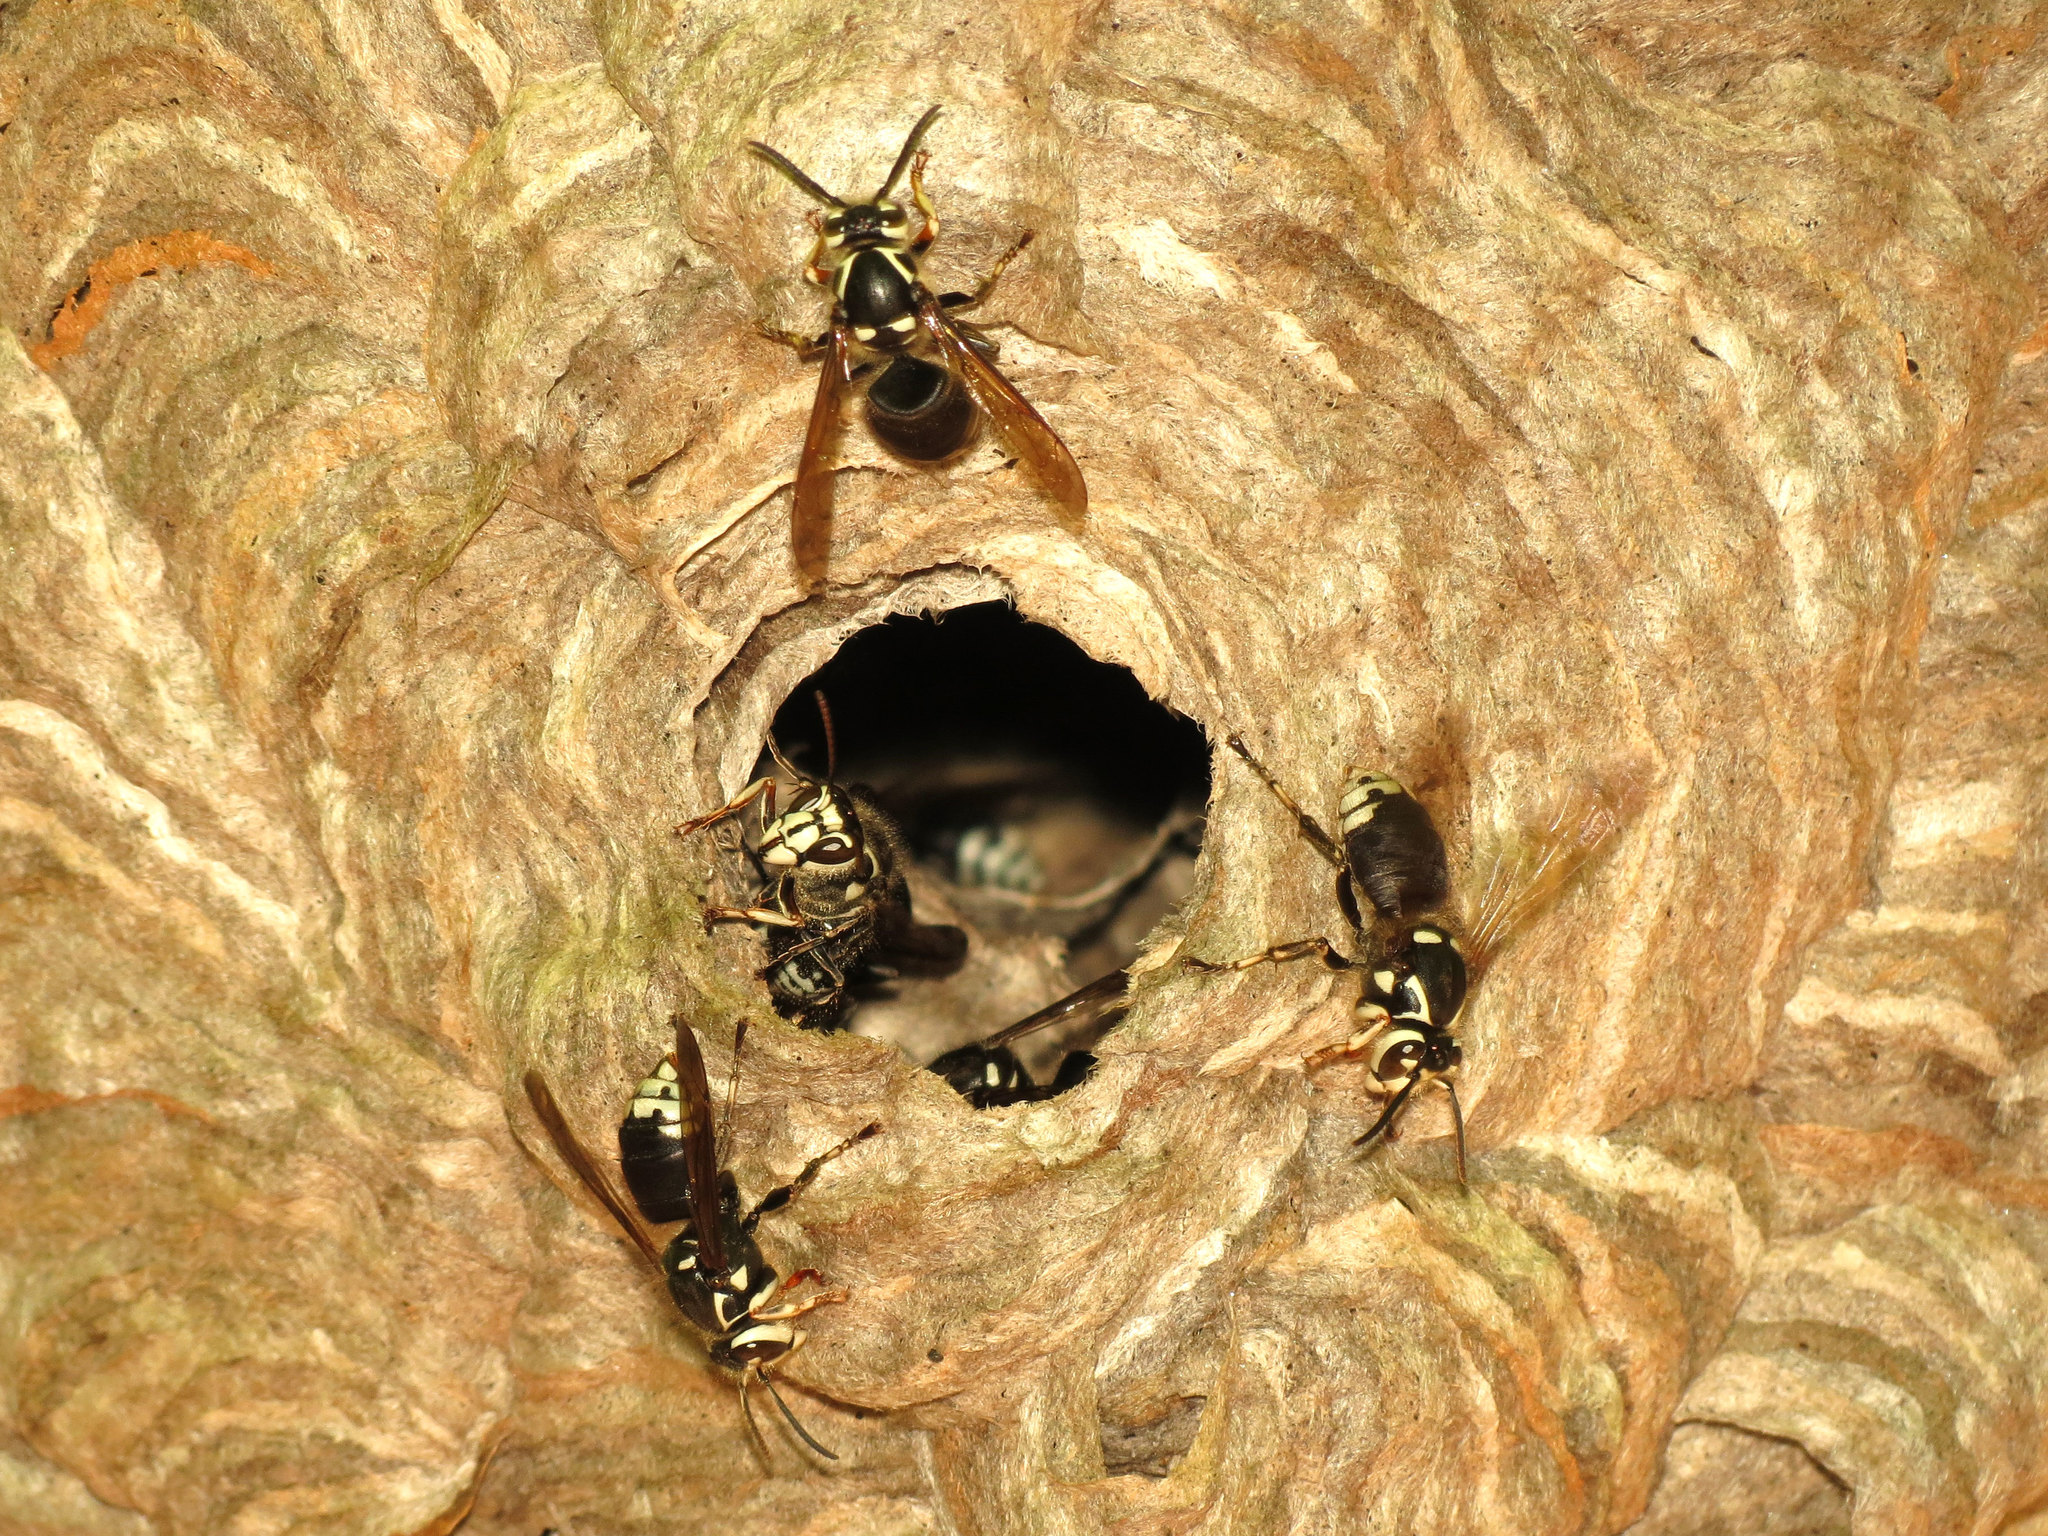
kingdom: Animalia
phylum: Arthropoda
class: Insecta
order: Hymenoptera
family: Vespidae
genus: Dolichovespula
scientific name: Dolichovespula maculata
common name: Bald-faced hornet
